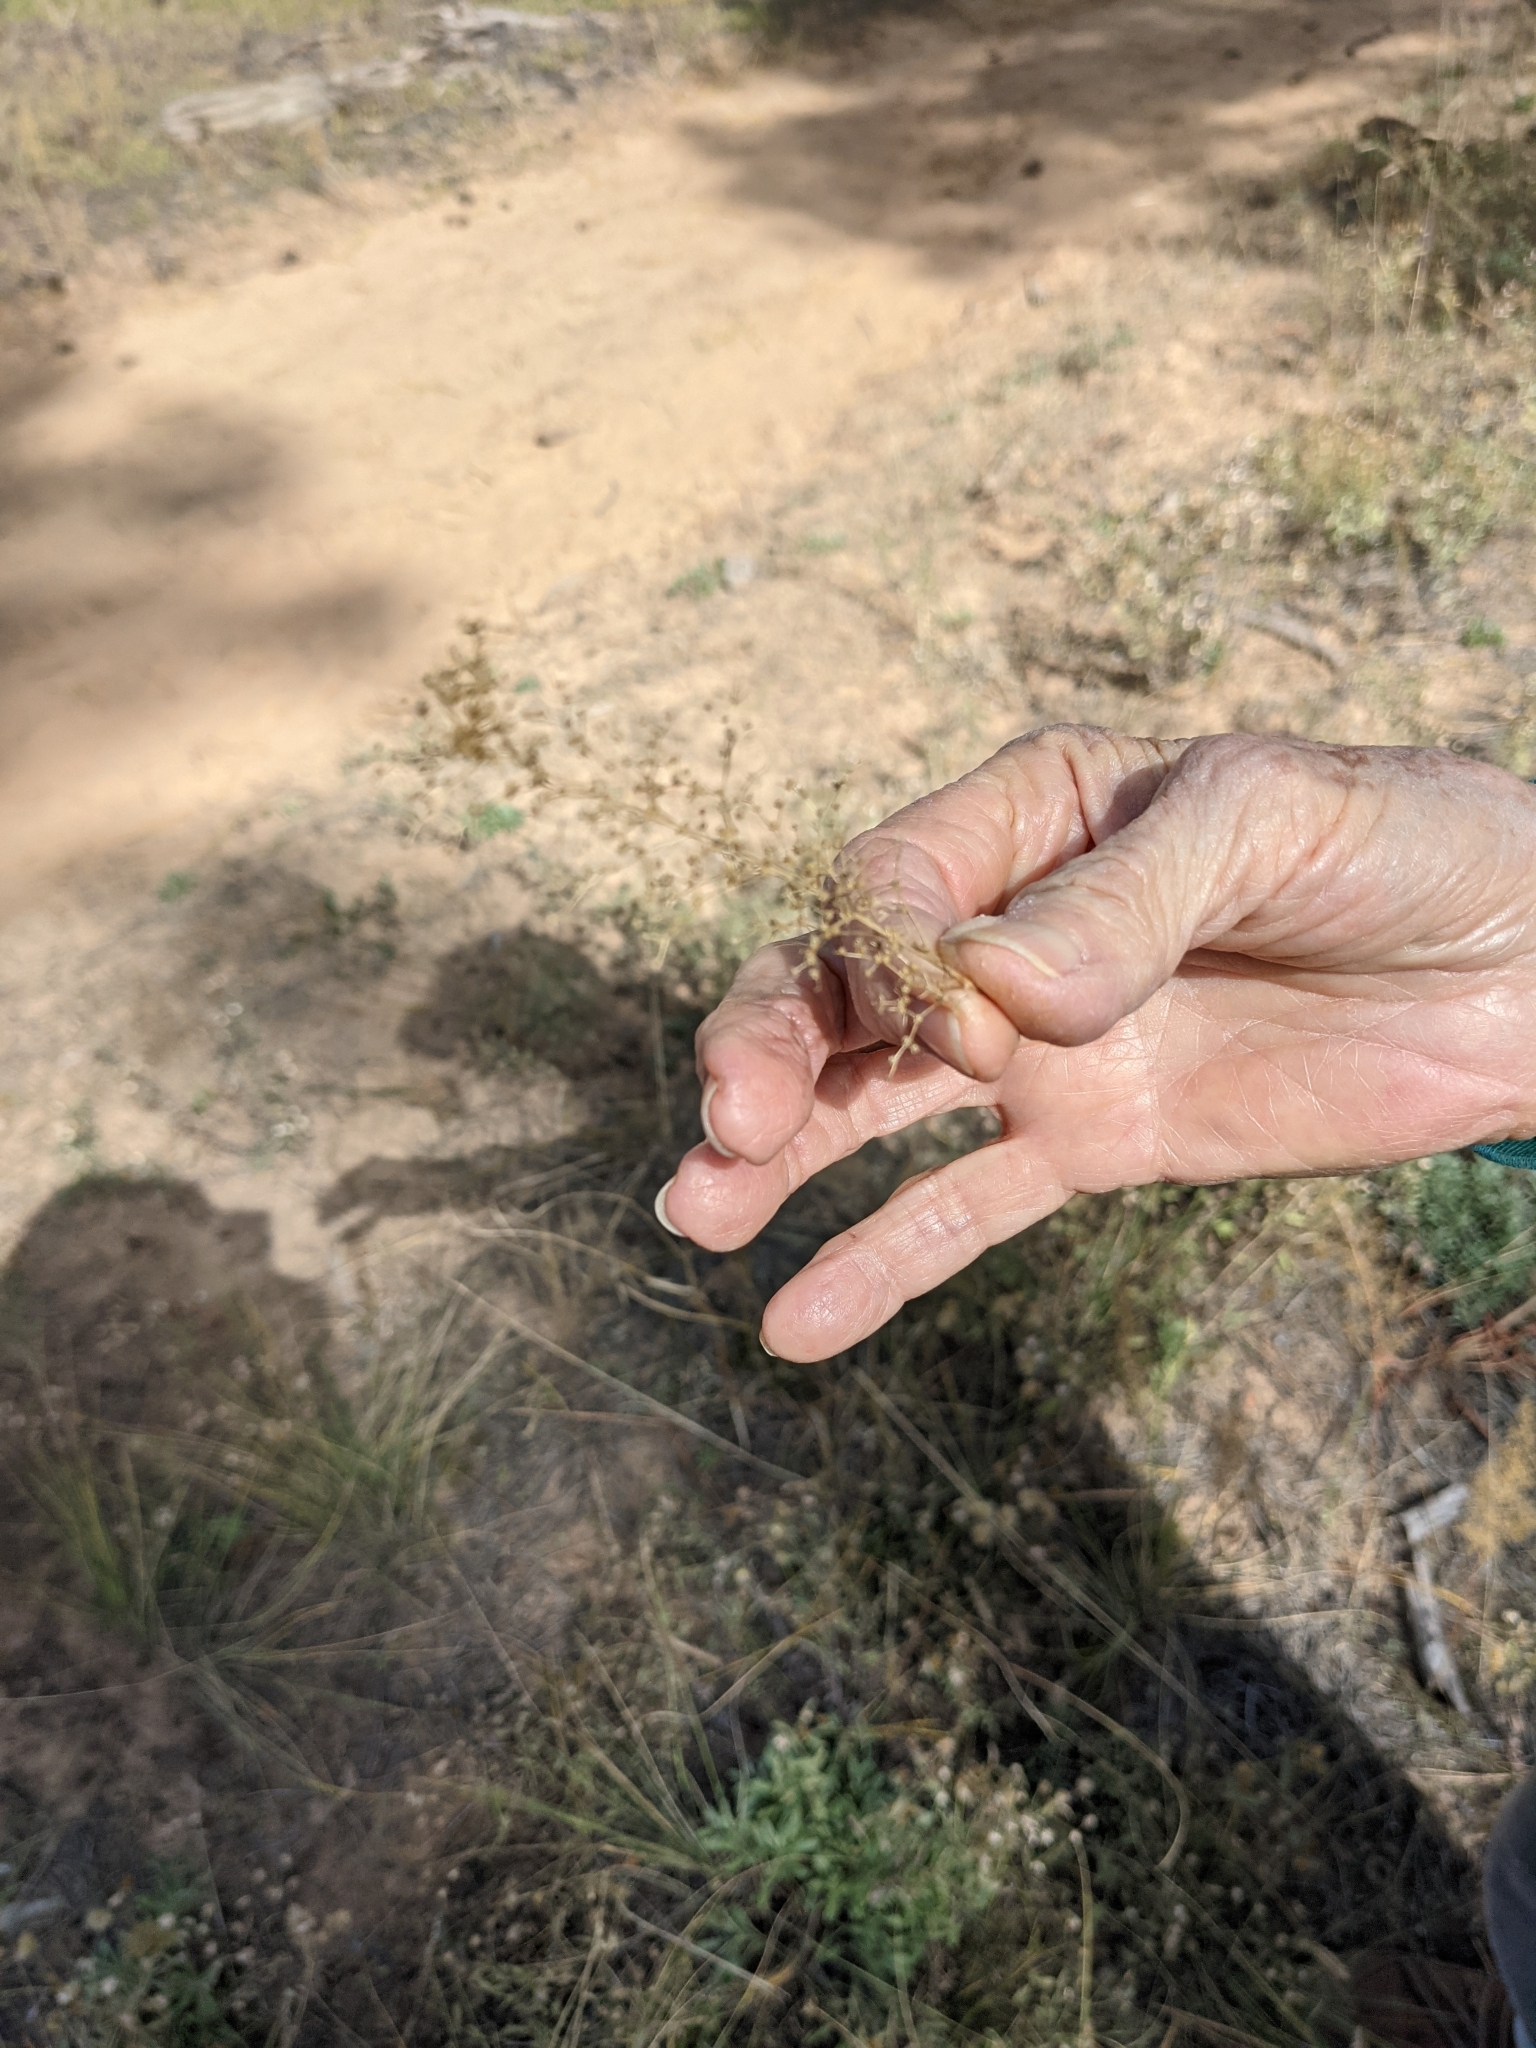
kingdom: Plantae
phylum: Tracheophyta
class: Magnoliopsida
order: Caryophyllales
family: Amaranthaceae
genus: Dysphania
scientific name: Dysphania incisa
